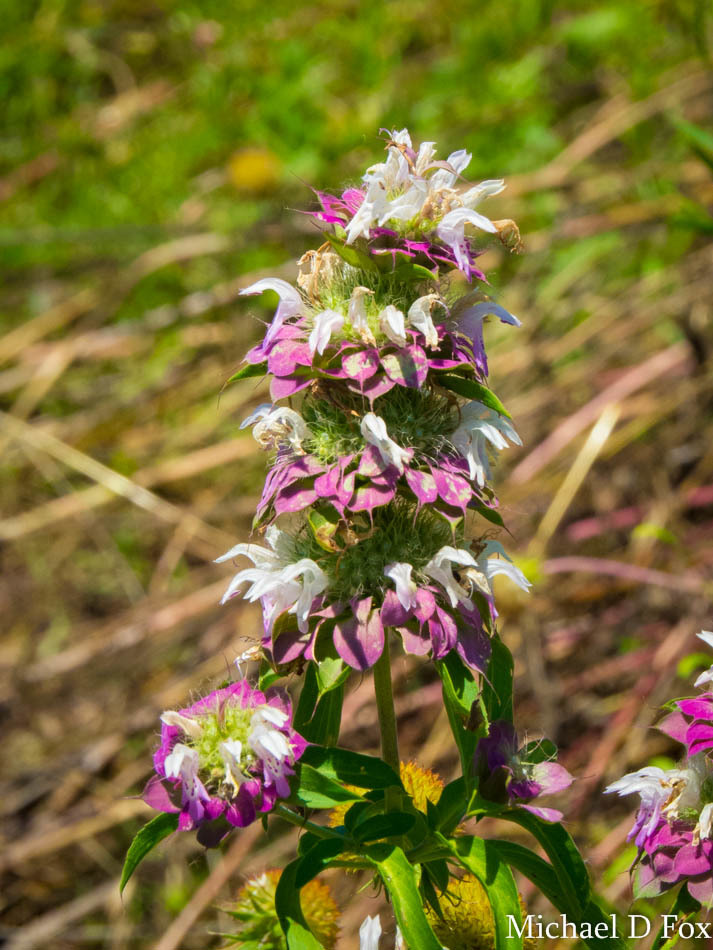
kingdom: Plantae
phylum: Tracheophyta
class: Magnoliopsida
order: Lamiales
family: Lamiaceae
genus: Monarda
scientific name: Monarda citriodora
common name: Lemon beebalm
